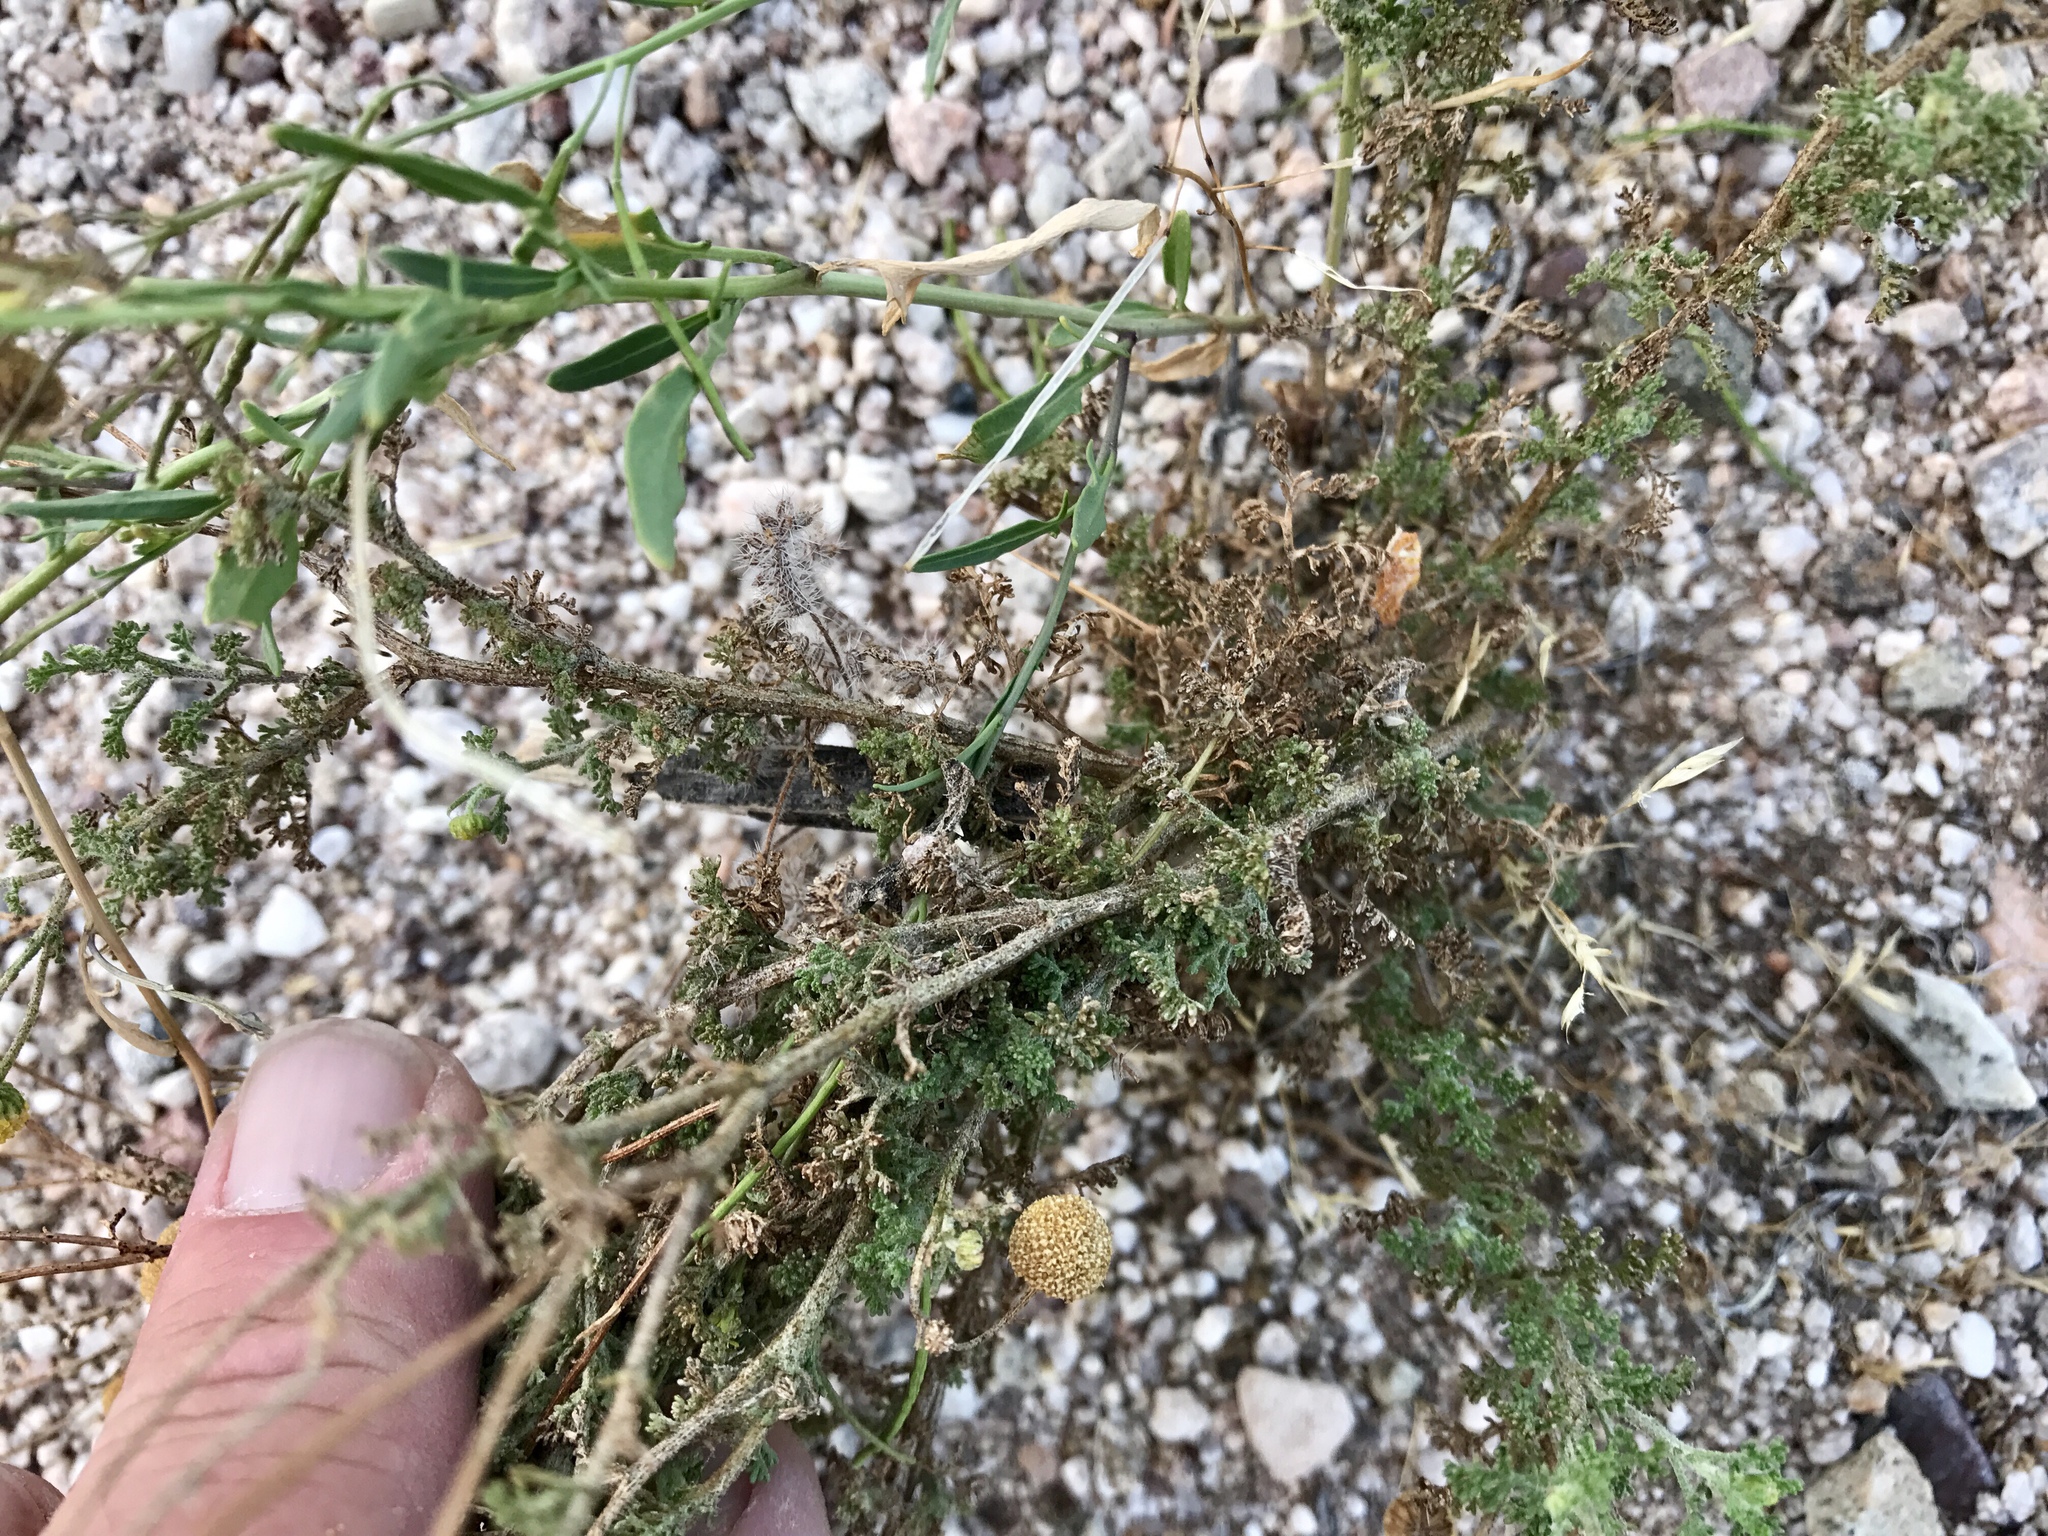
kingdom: Plantae
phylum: Tracheophyta
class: Magnoliopsida
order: Asterales
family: Asteraceae
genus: Oncosiphon
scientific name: Oncosiphon pilulifer
